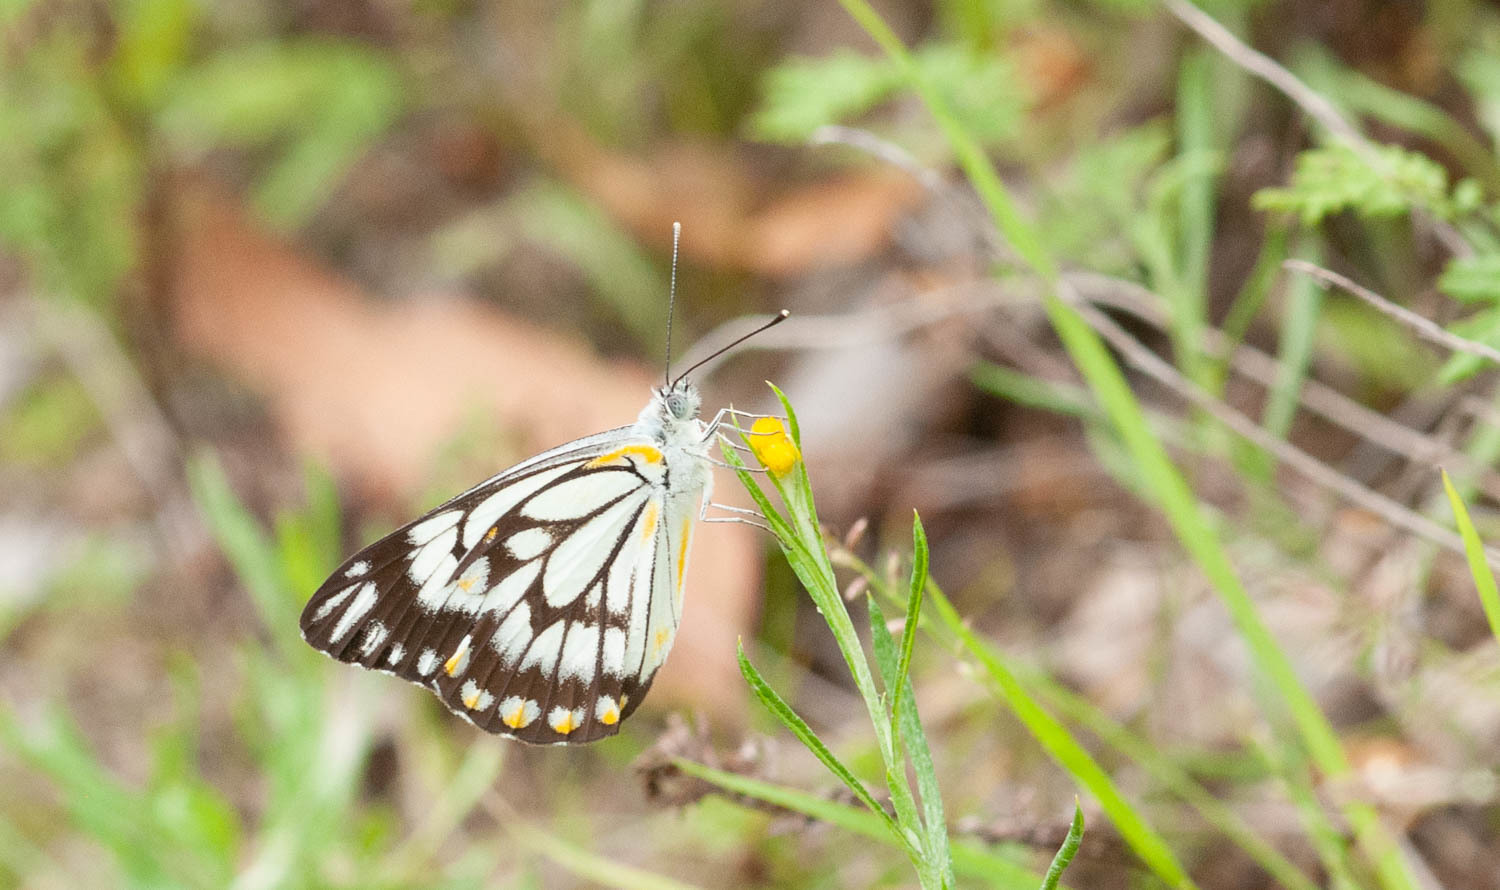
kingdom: Animalia
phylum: Arthropoda
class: Insecta
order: Lepidoptera
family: Pieridae
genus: Belenois
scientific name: Belenois java
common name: Caper white
